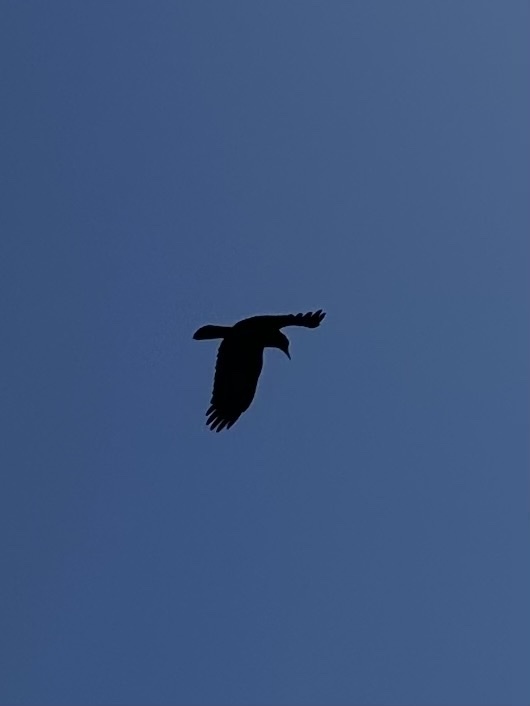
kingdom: Animalia
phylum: Chordata
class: Aves
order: Passeriformes
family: Corvidae
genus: Corvus
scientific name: Corvus brachyrhynchos
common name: American crow
